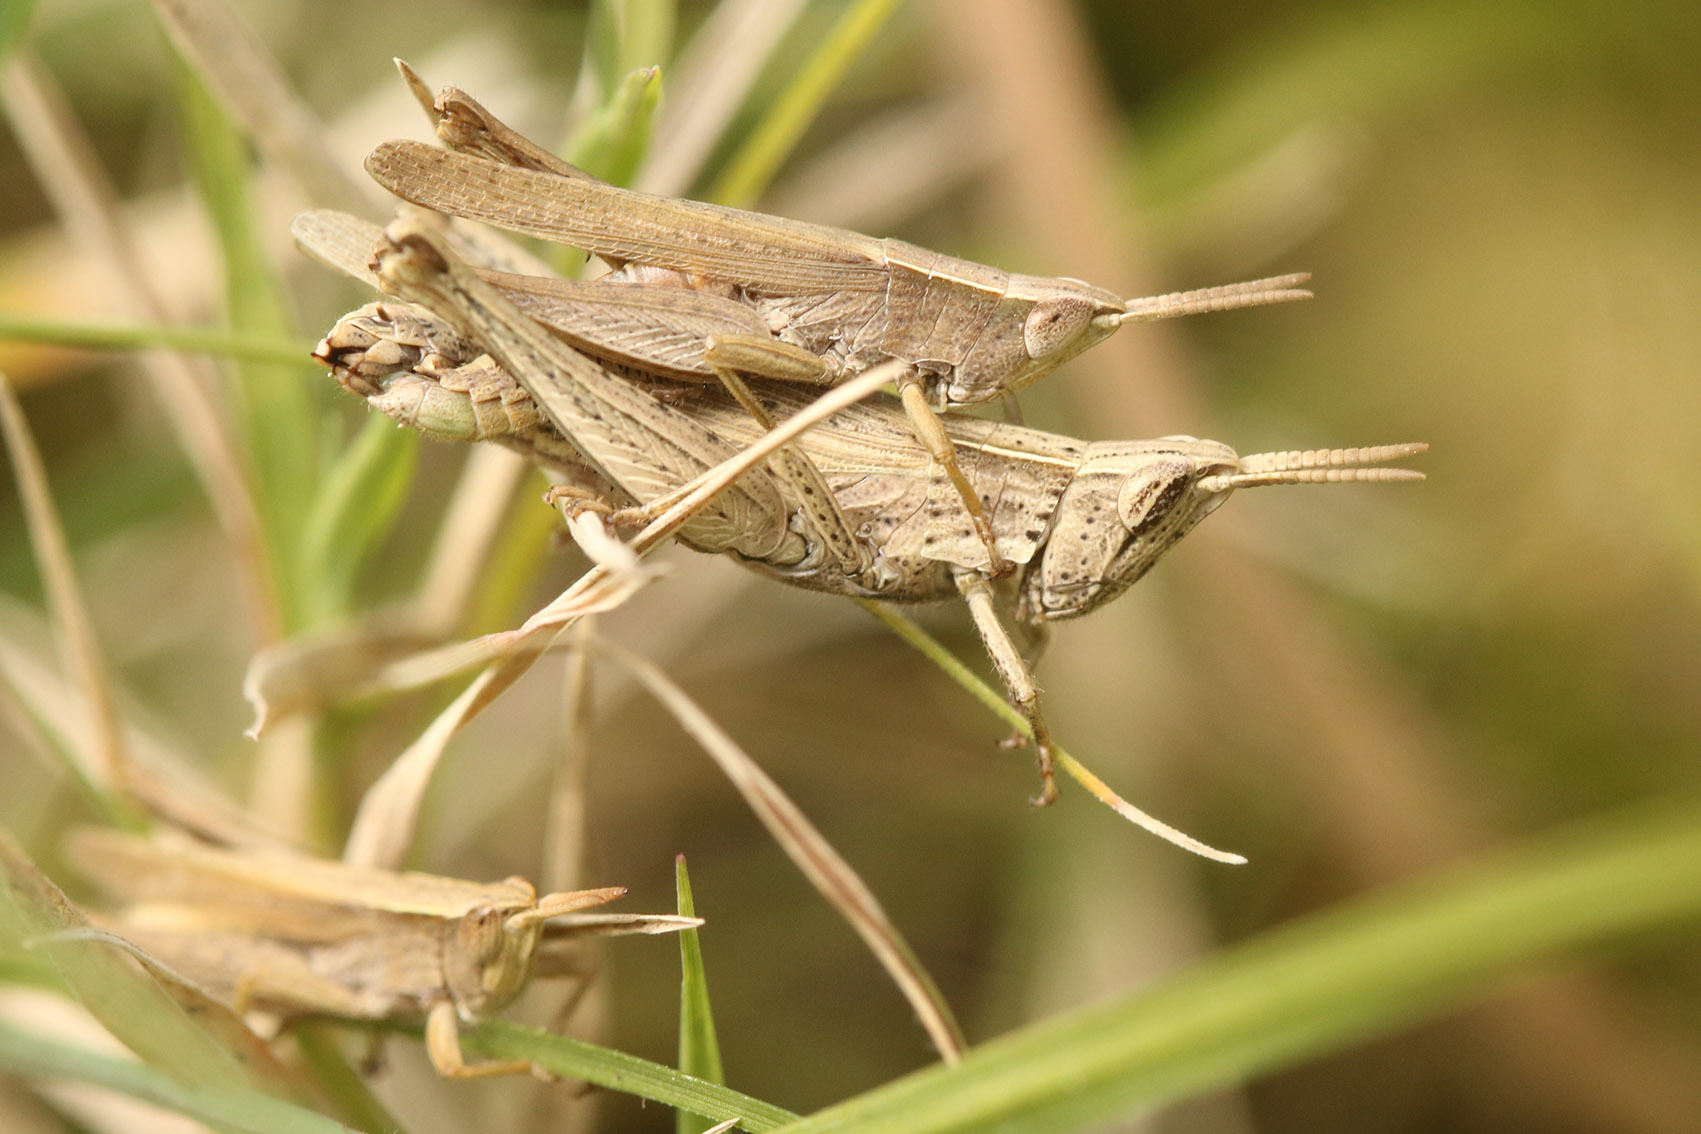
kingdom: Animalia
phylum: Arthropoda
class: Insecta
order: Orthoptera
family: Acrididae
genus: Laplatacris
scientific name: Laplatacris dispar
